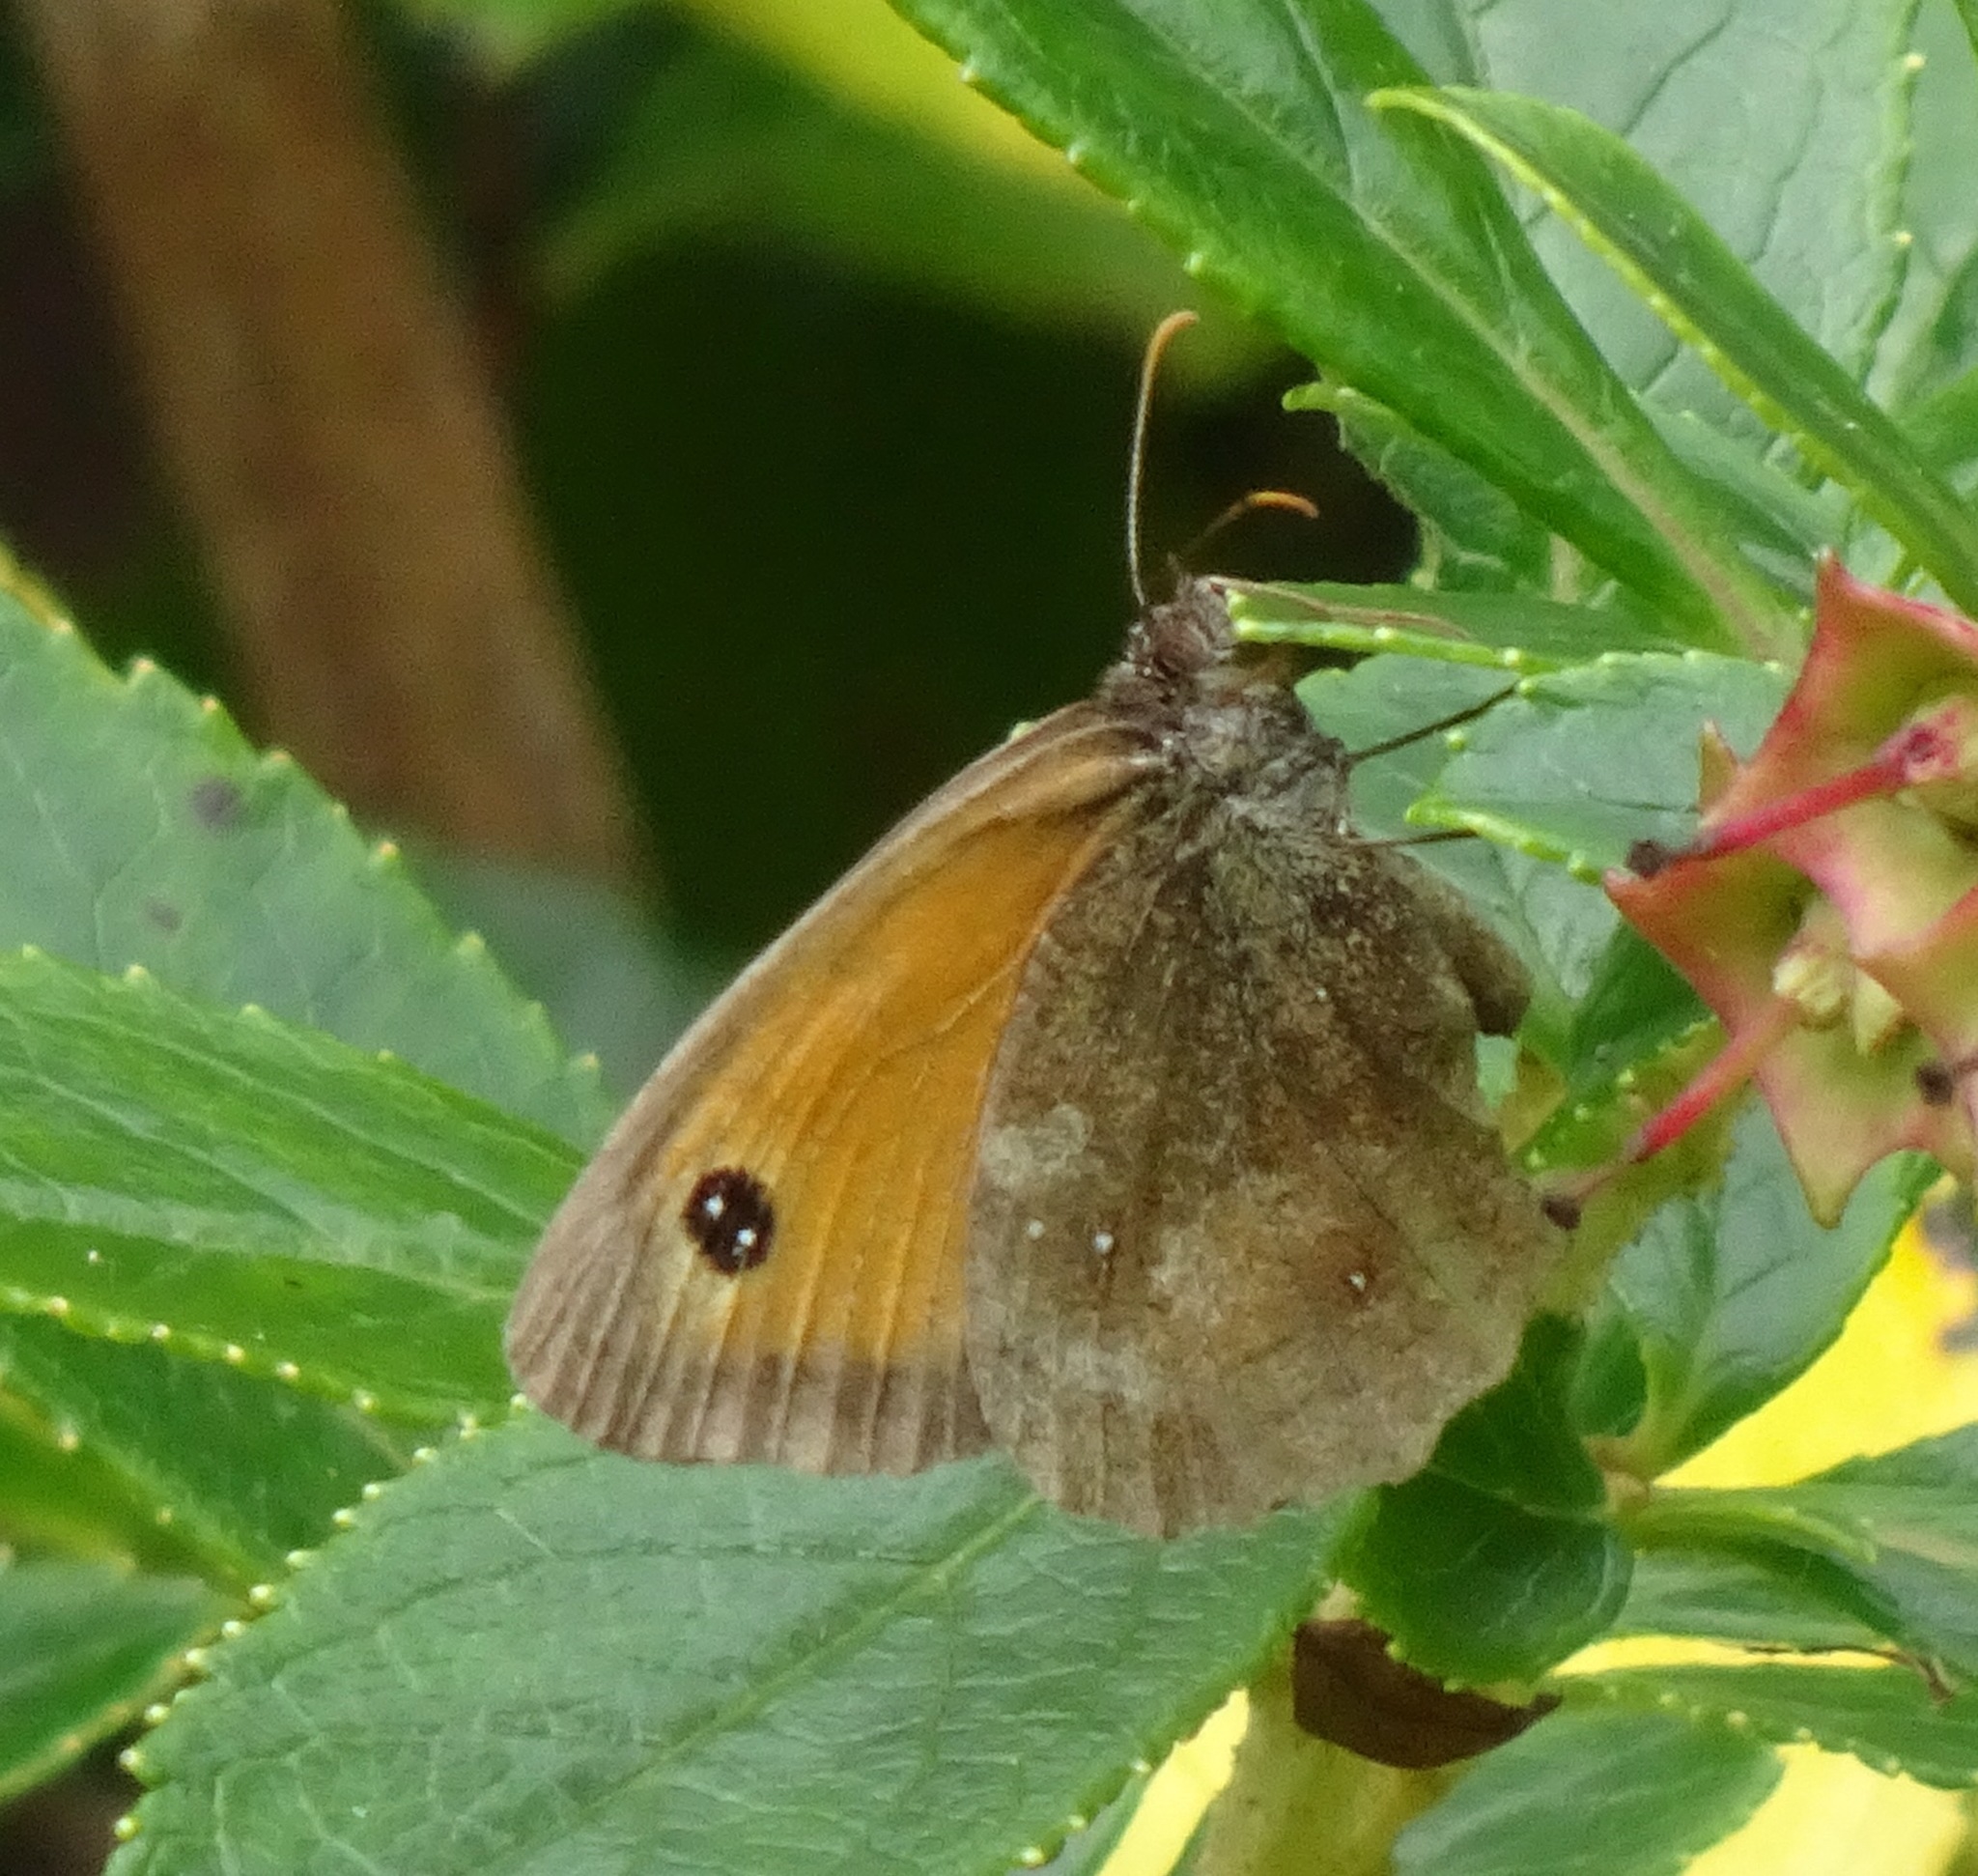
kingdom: Animalia
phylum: Arthropoda
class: Insecta
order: Lepidoptera
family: Nymphalidae
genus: Pyronia
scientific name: Pyronia tithonus
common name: Gatekeeper
